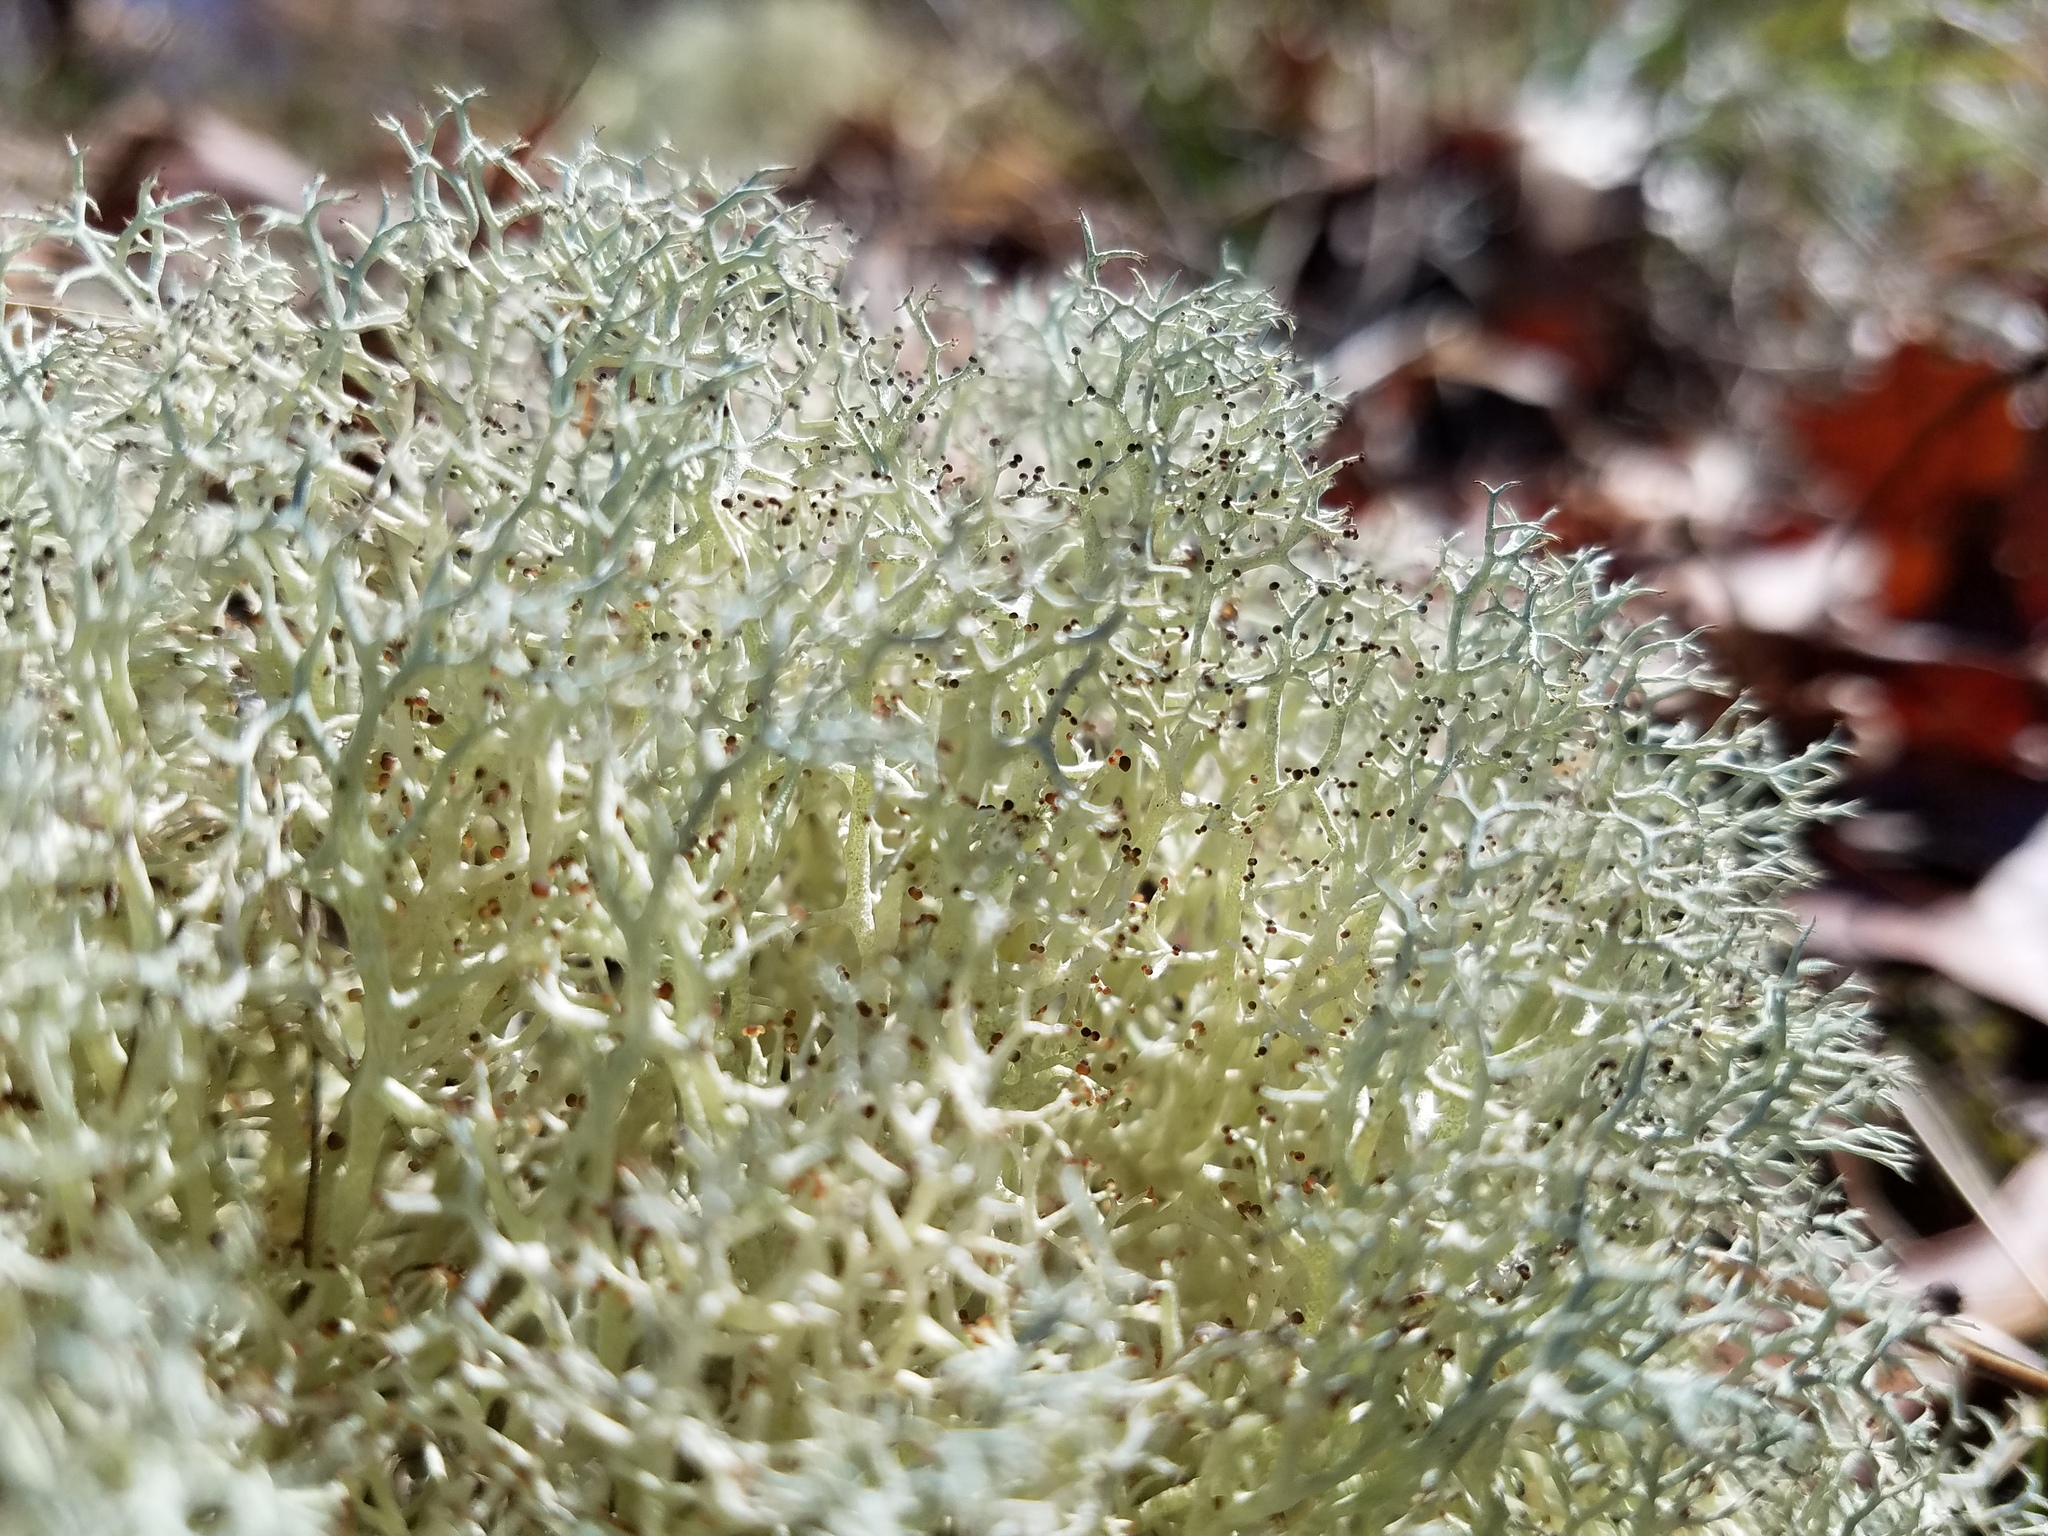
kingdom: Fungi
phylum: Ascomycota
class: Lecanoromycetes
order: Lecanorales
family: Cladoniaceae
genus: Cladonia
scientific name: Cladonia subtenuis
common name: Dixie reindeer lichen
